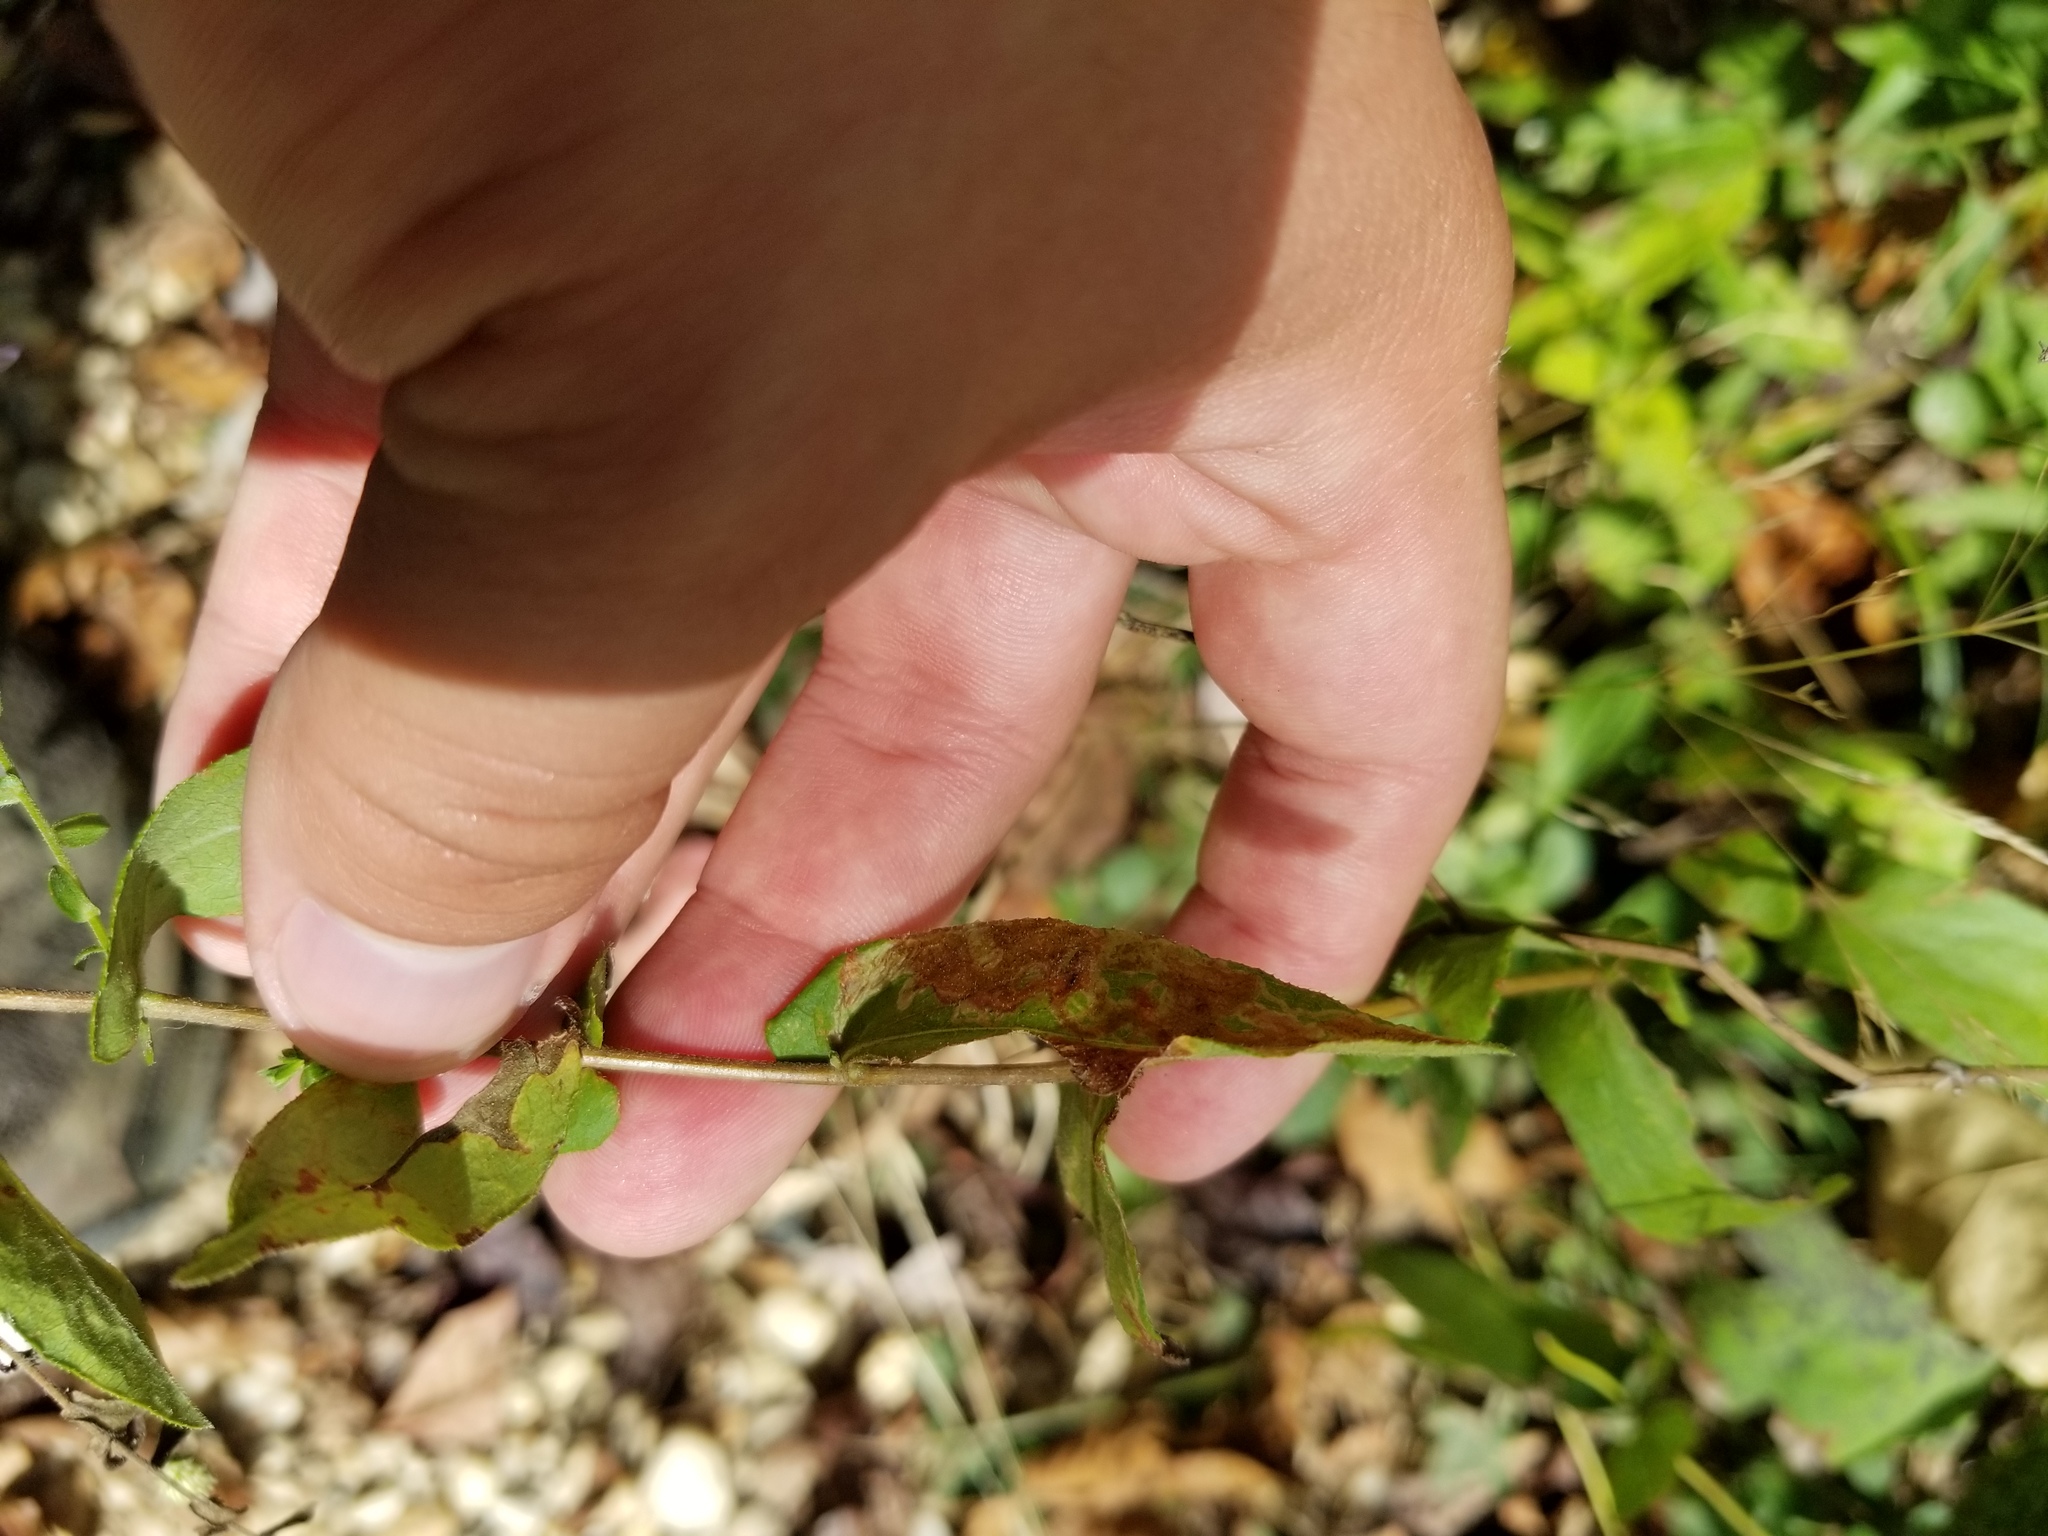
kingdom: Plantae
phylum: Tracheophyta
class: Magnoliopsida
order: Asterales
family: Asteraceae
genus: Symphyotrichum
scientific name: Symphyotrichum patens
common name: Late purple aster
